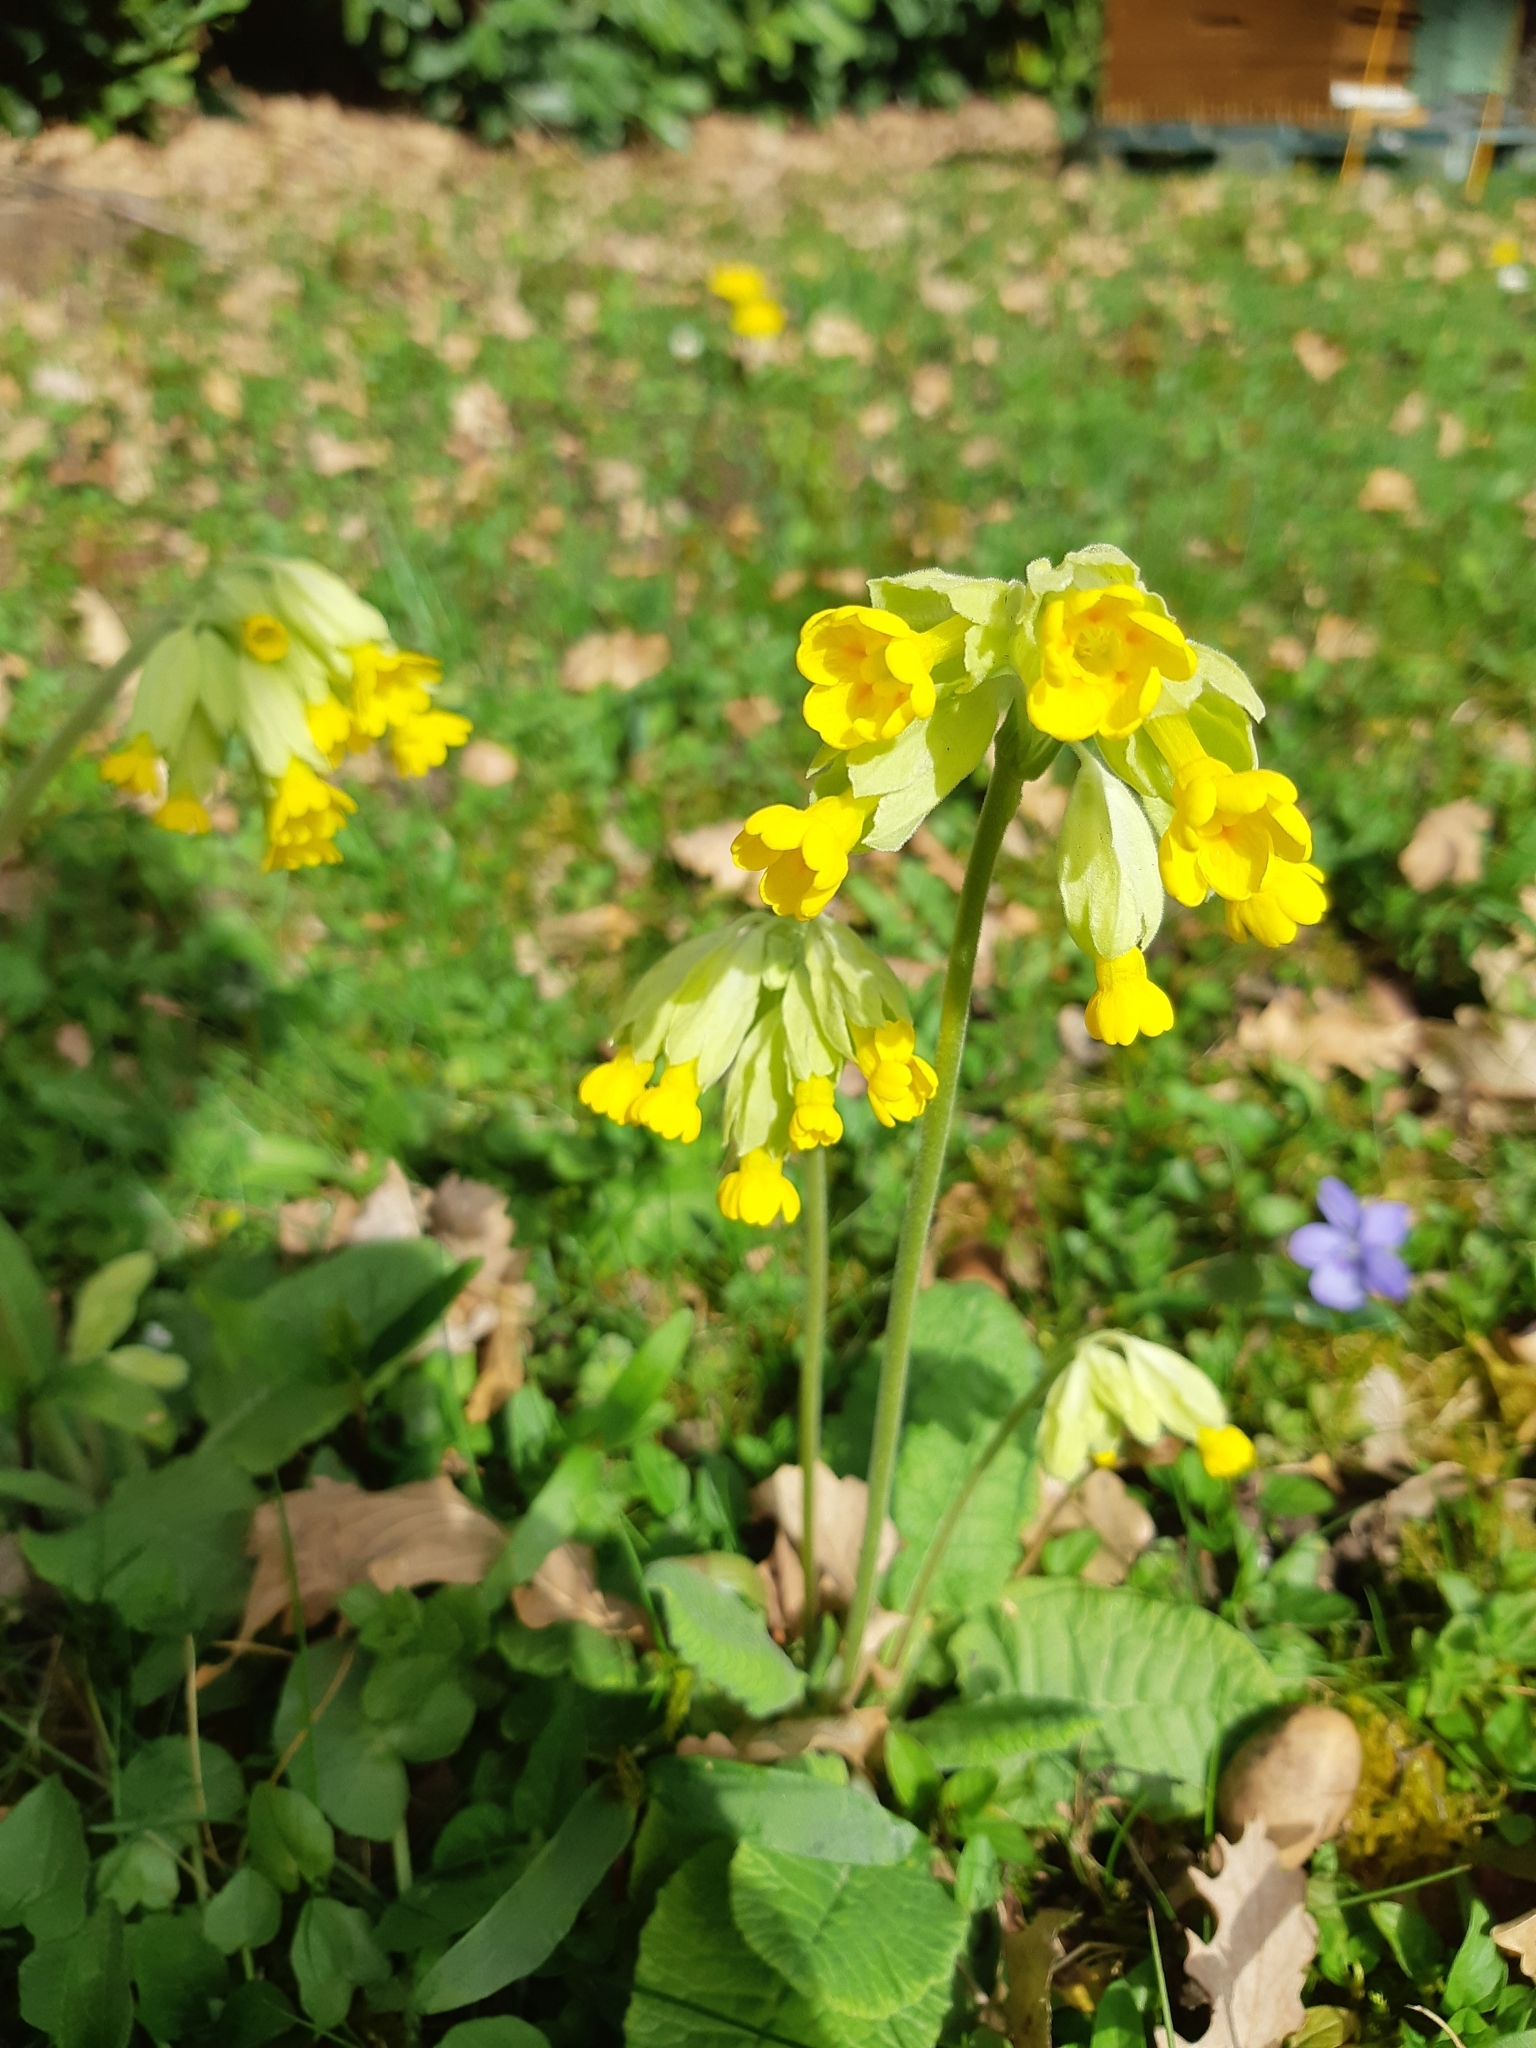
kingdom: Plantae
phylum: Tracheophyta
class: Magnoliopsida
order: Ericales
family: Primulaceae
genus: Primula
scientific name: Primula veris
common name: Cowslip
